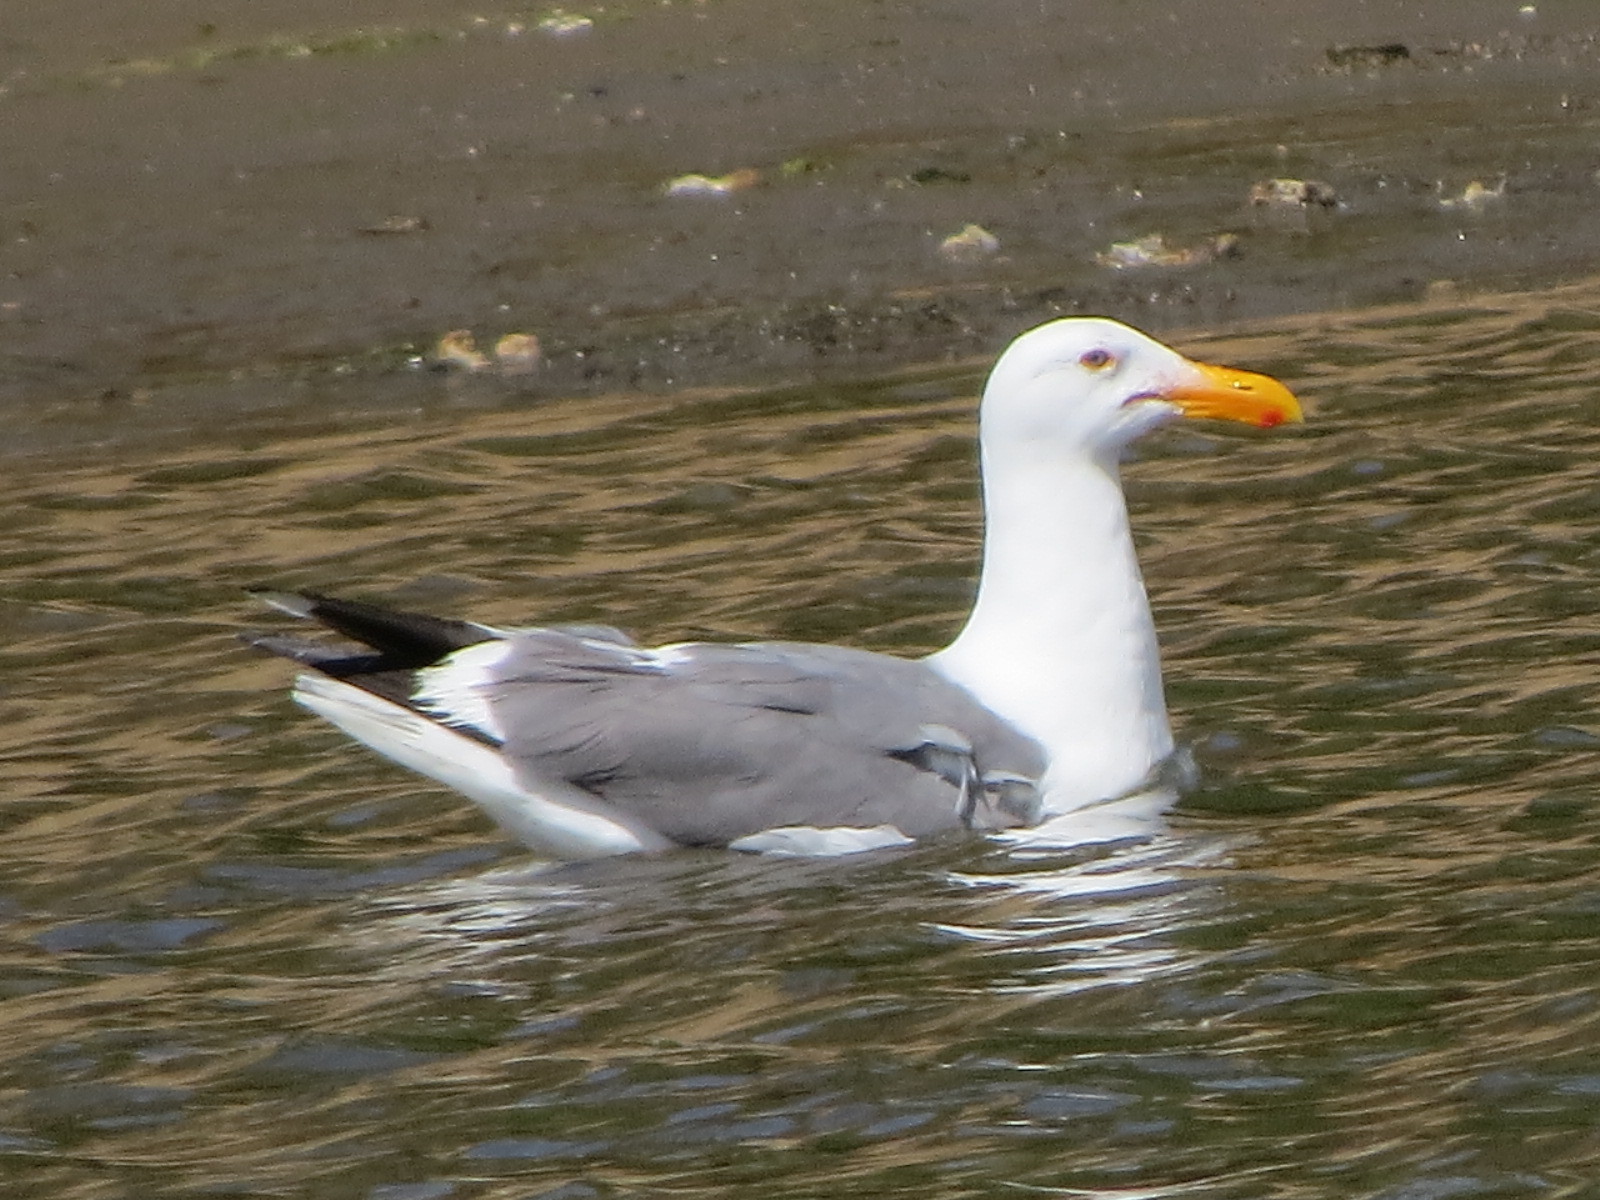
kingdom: Animalia
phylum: Chordata
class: Aves
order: Charadriiformes
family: Laridae
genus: Larus
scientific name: Larus occidentalis
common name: Western gull
